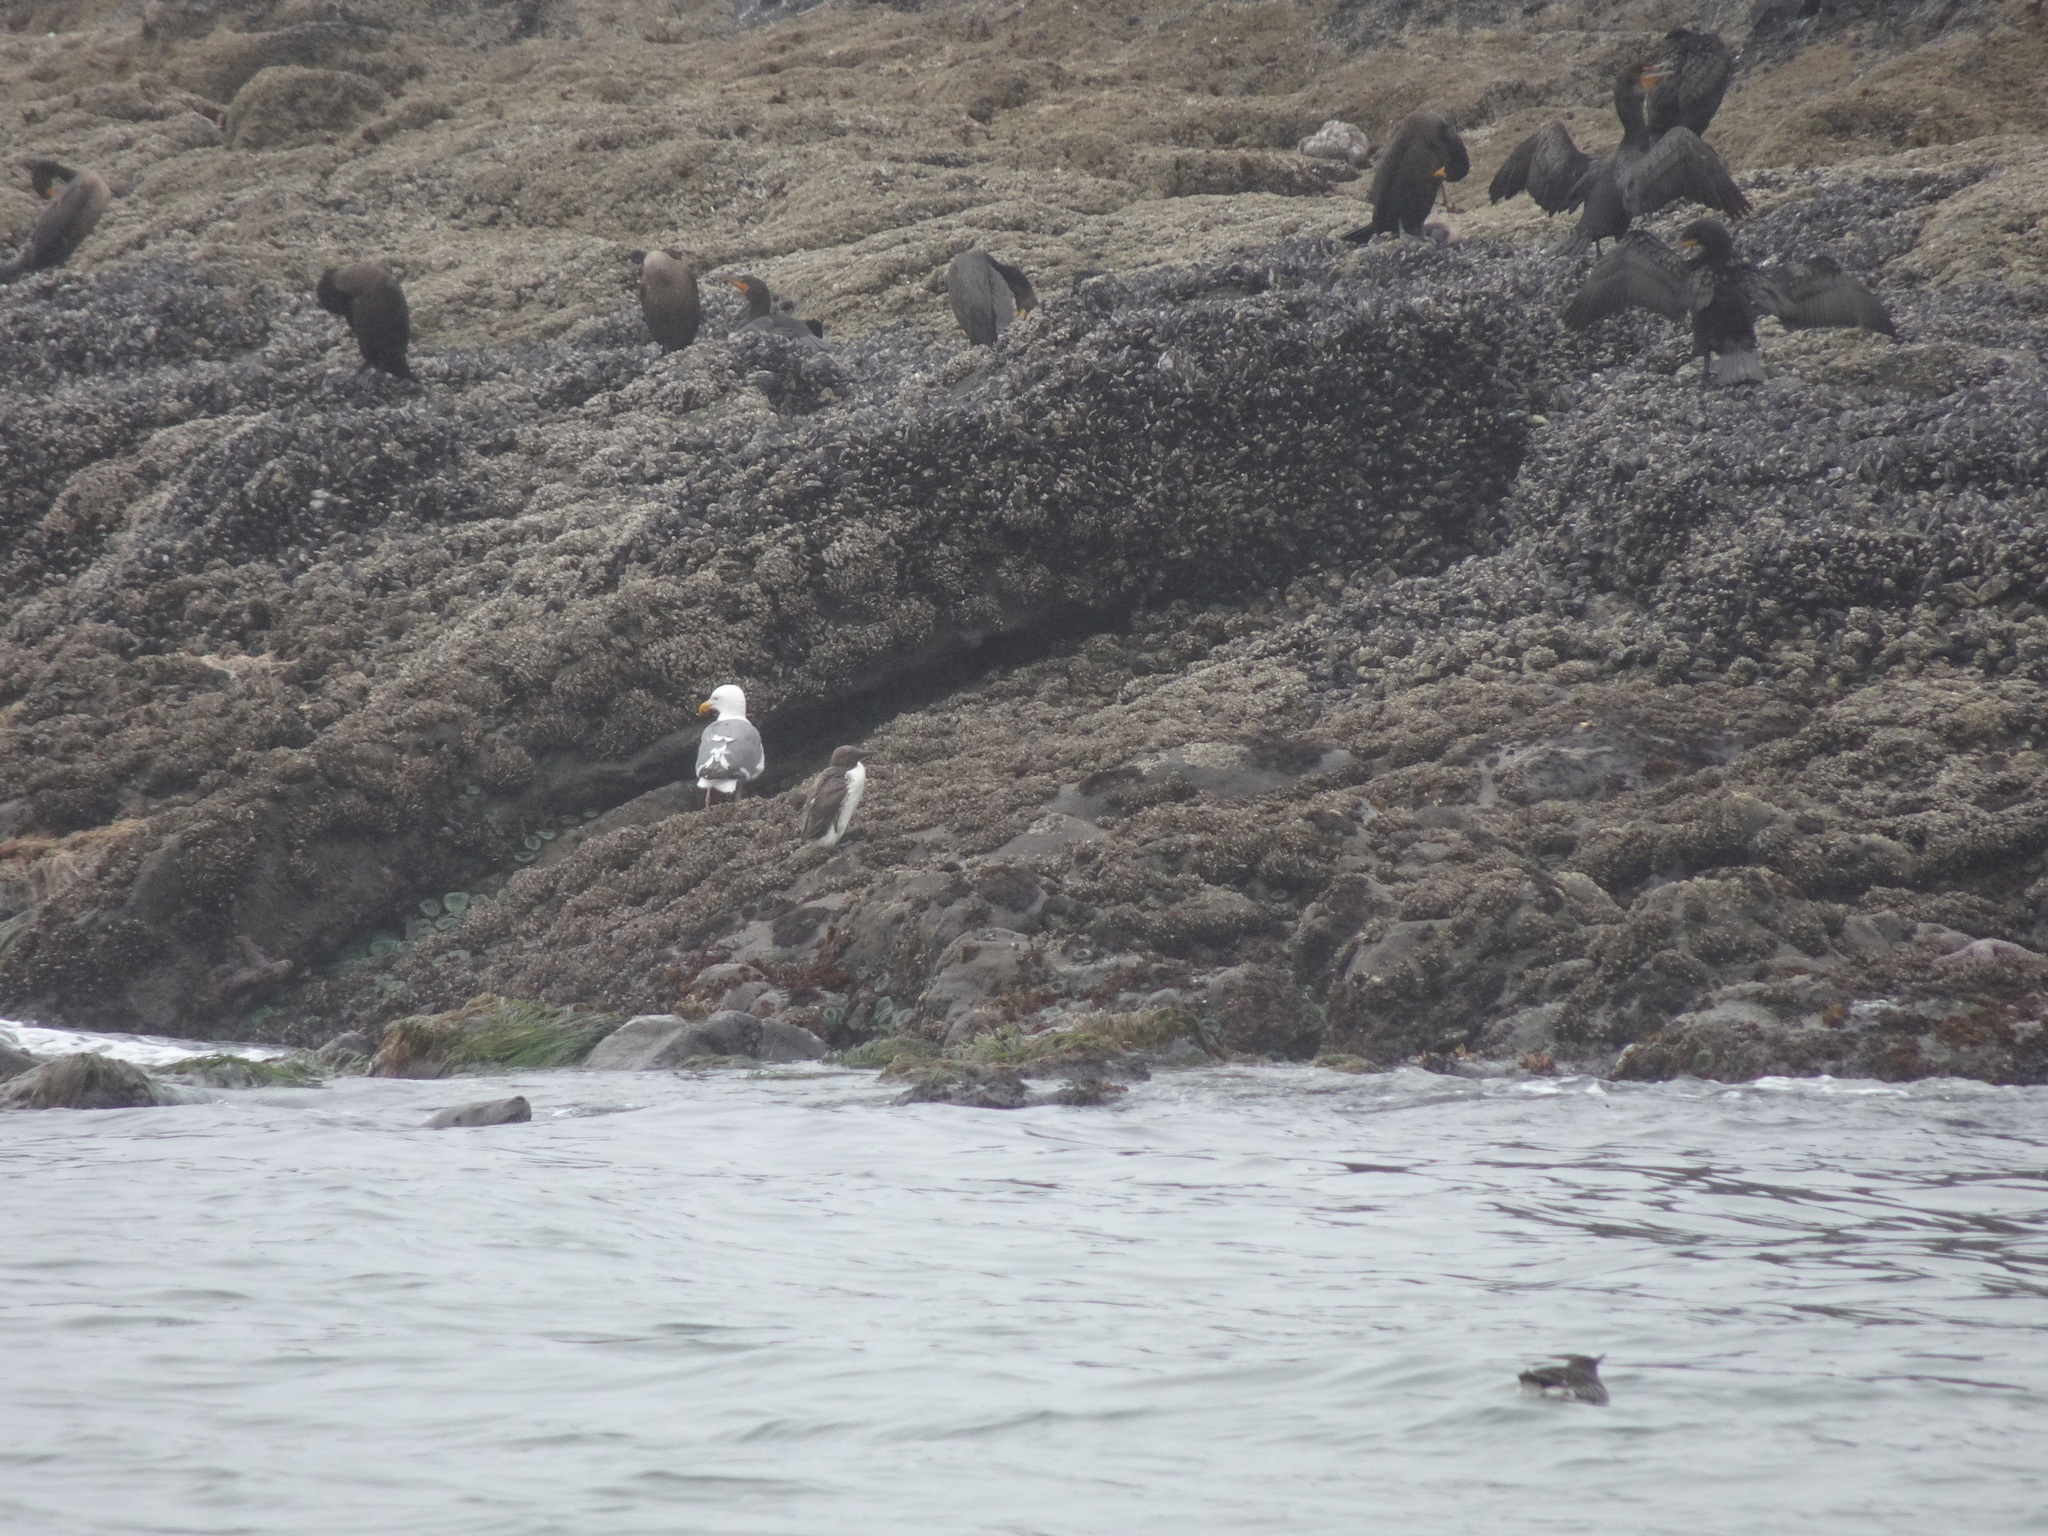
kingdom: Animalia
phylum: Chordata
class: Aves
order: Charadriiformes
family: Alcidae
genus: Uria
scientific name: Uria aalge
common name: Common murre
